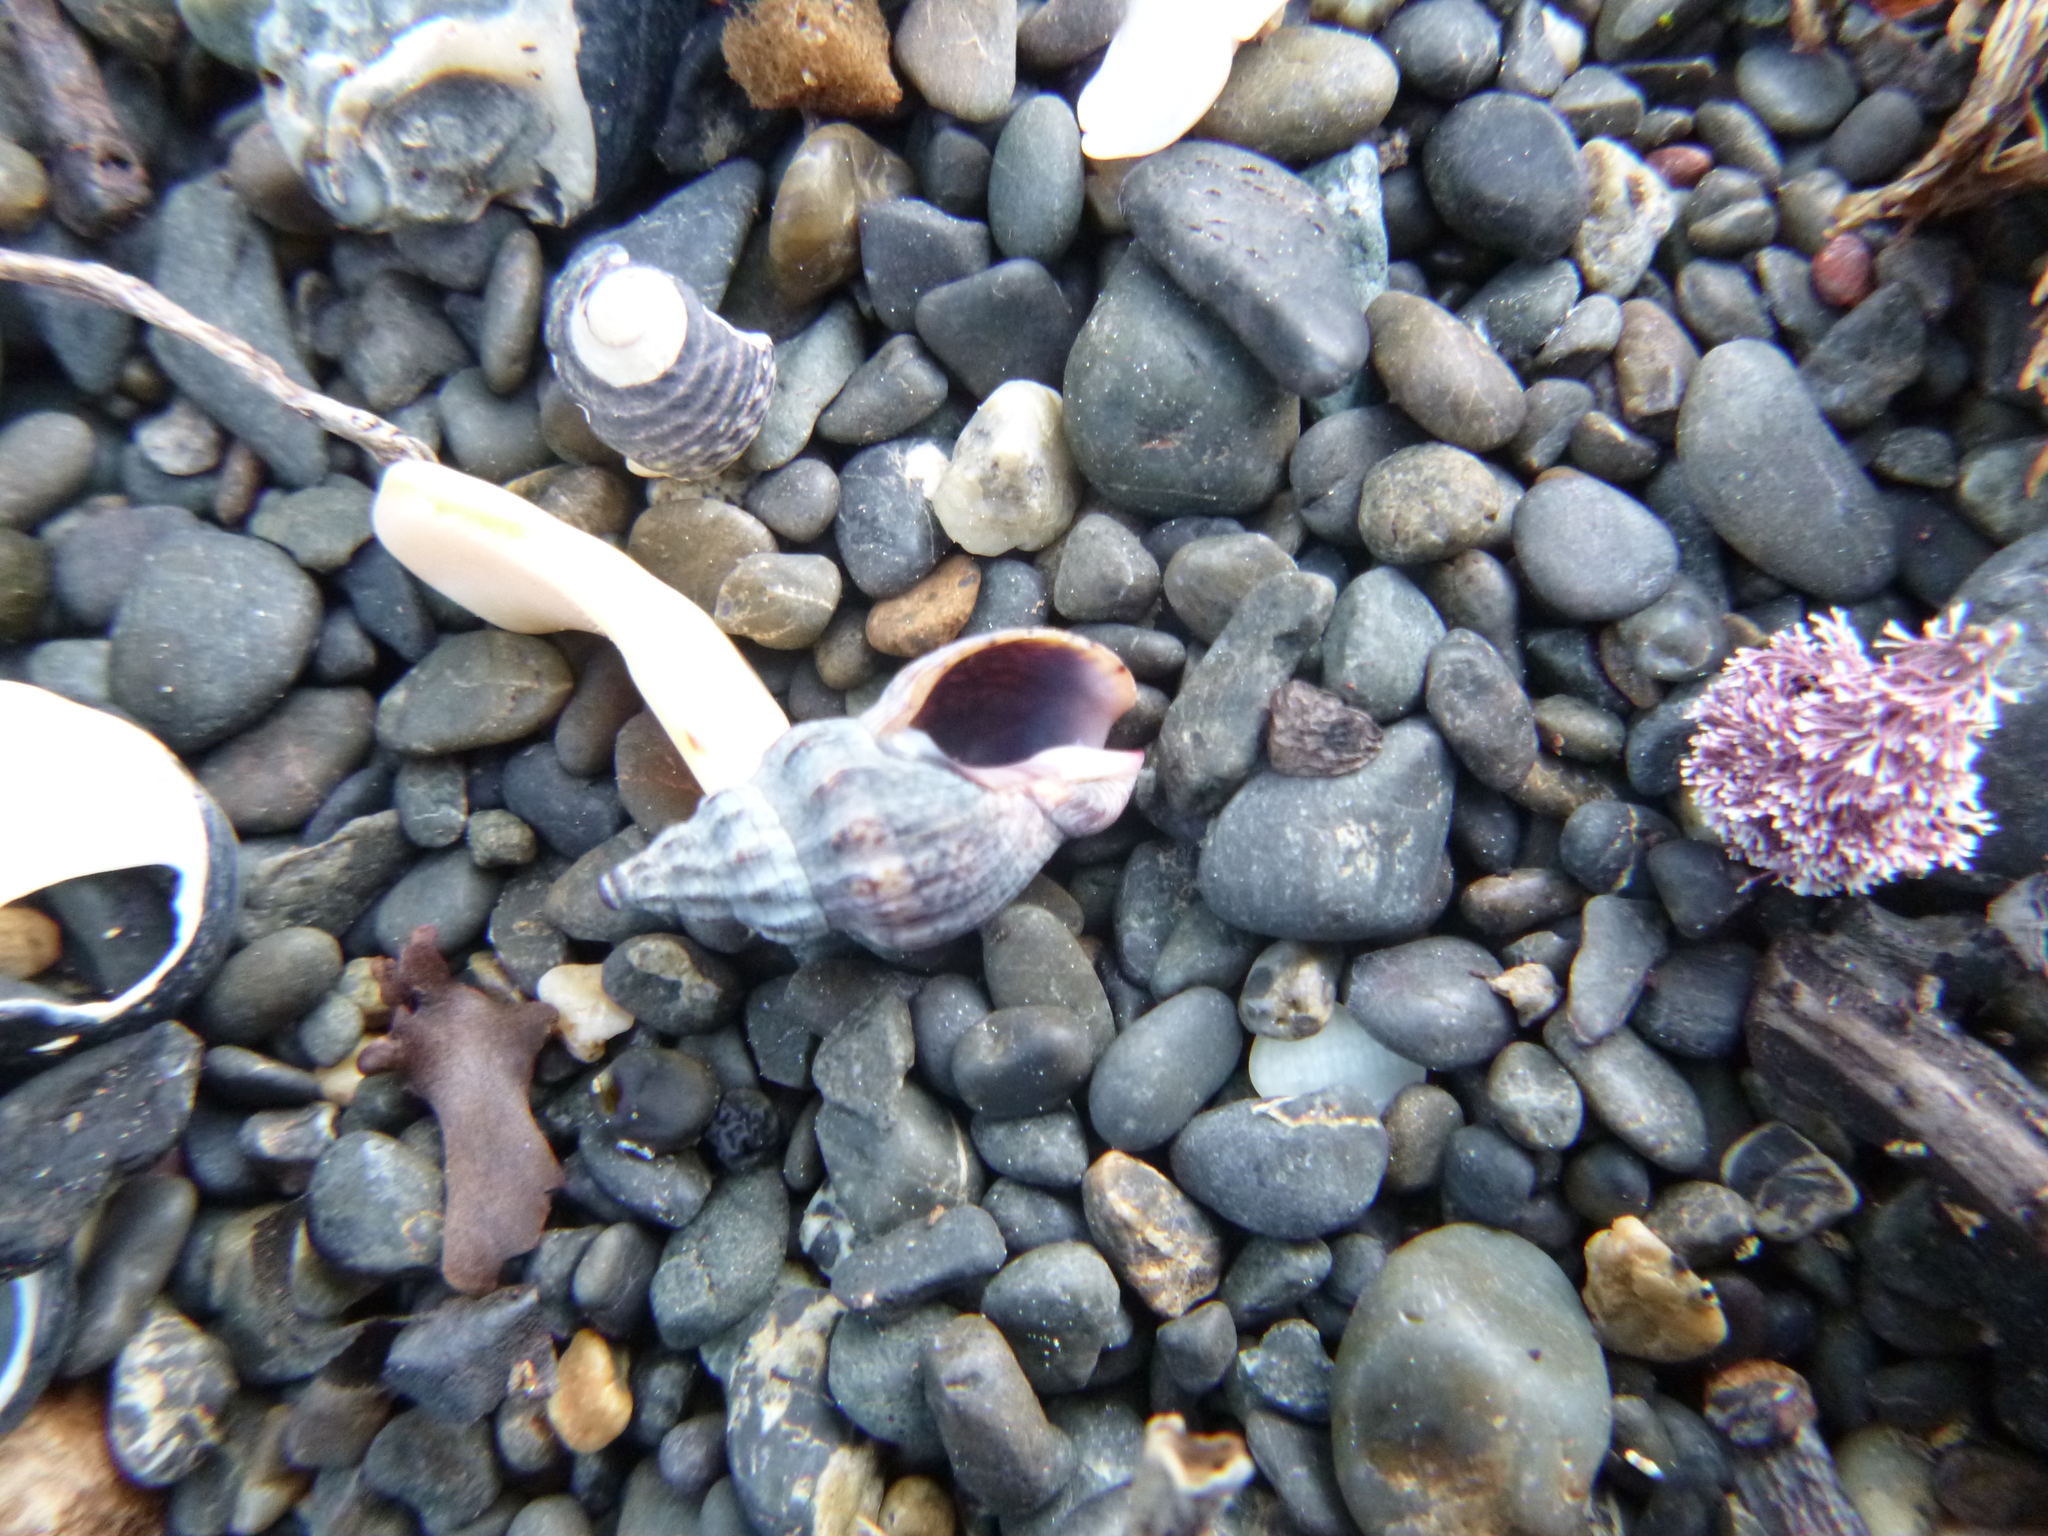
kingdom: Animalia
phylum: Mollusca
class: Gastropoda
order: Neogastropoda
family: Cominellidae
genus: Cominella
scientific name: Cominella quoyana
